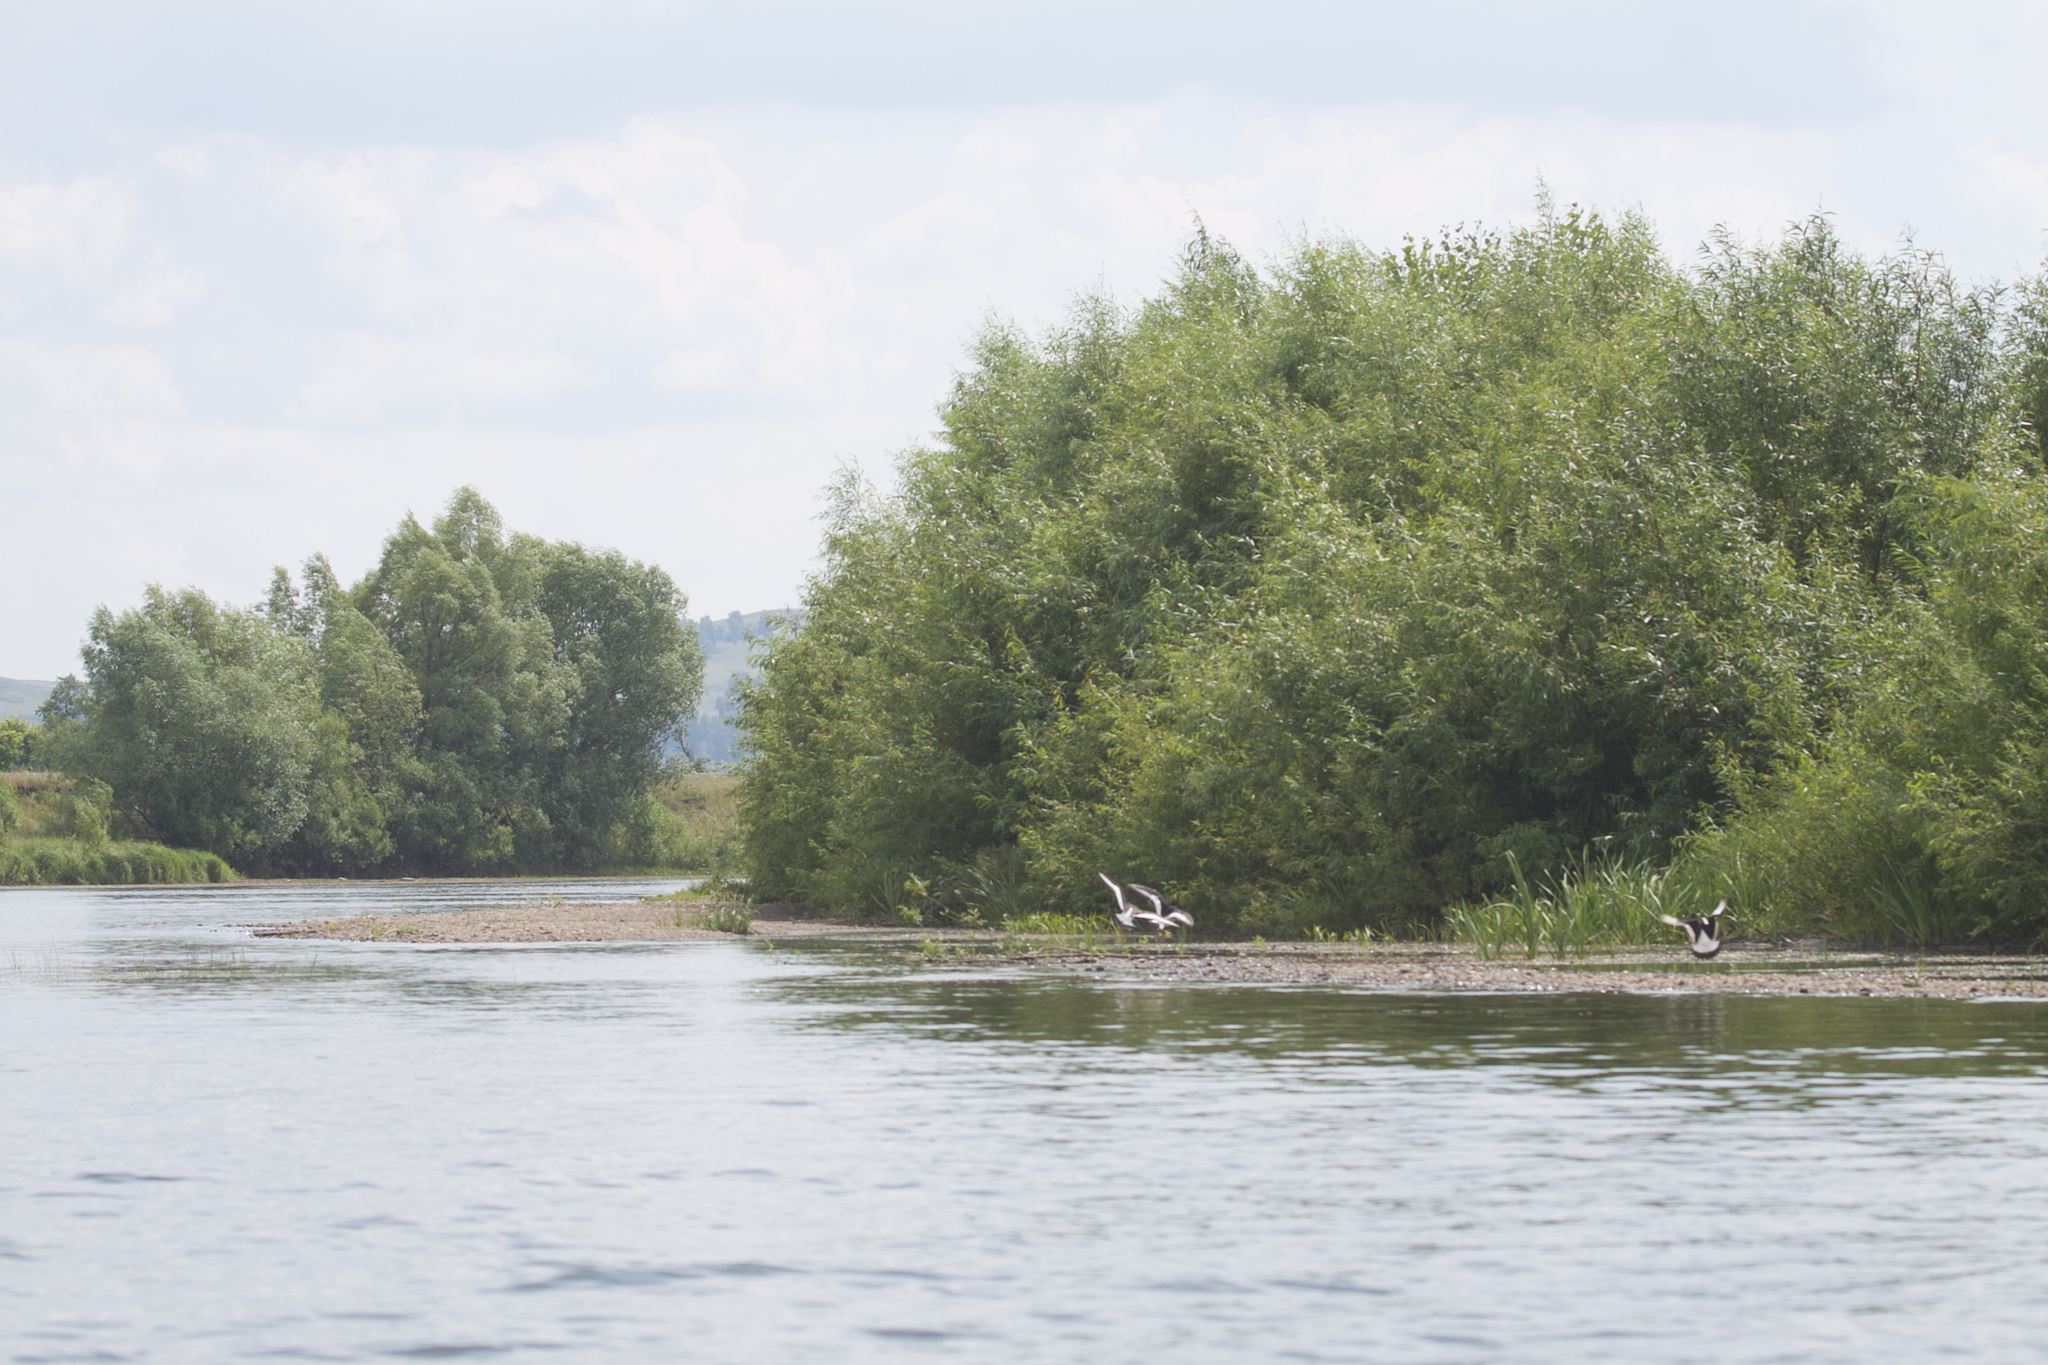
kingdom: Animalia
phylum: Chordata
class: Aves
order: Charadriiformes
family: Haematopodidae
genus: Haematopus
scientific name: Haematopus ostralegus
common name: Eurasian oystercatcher
